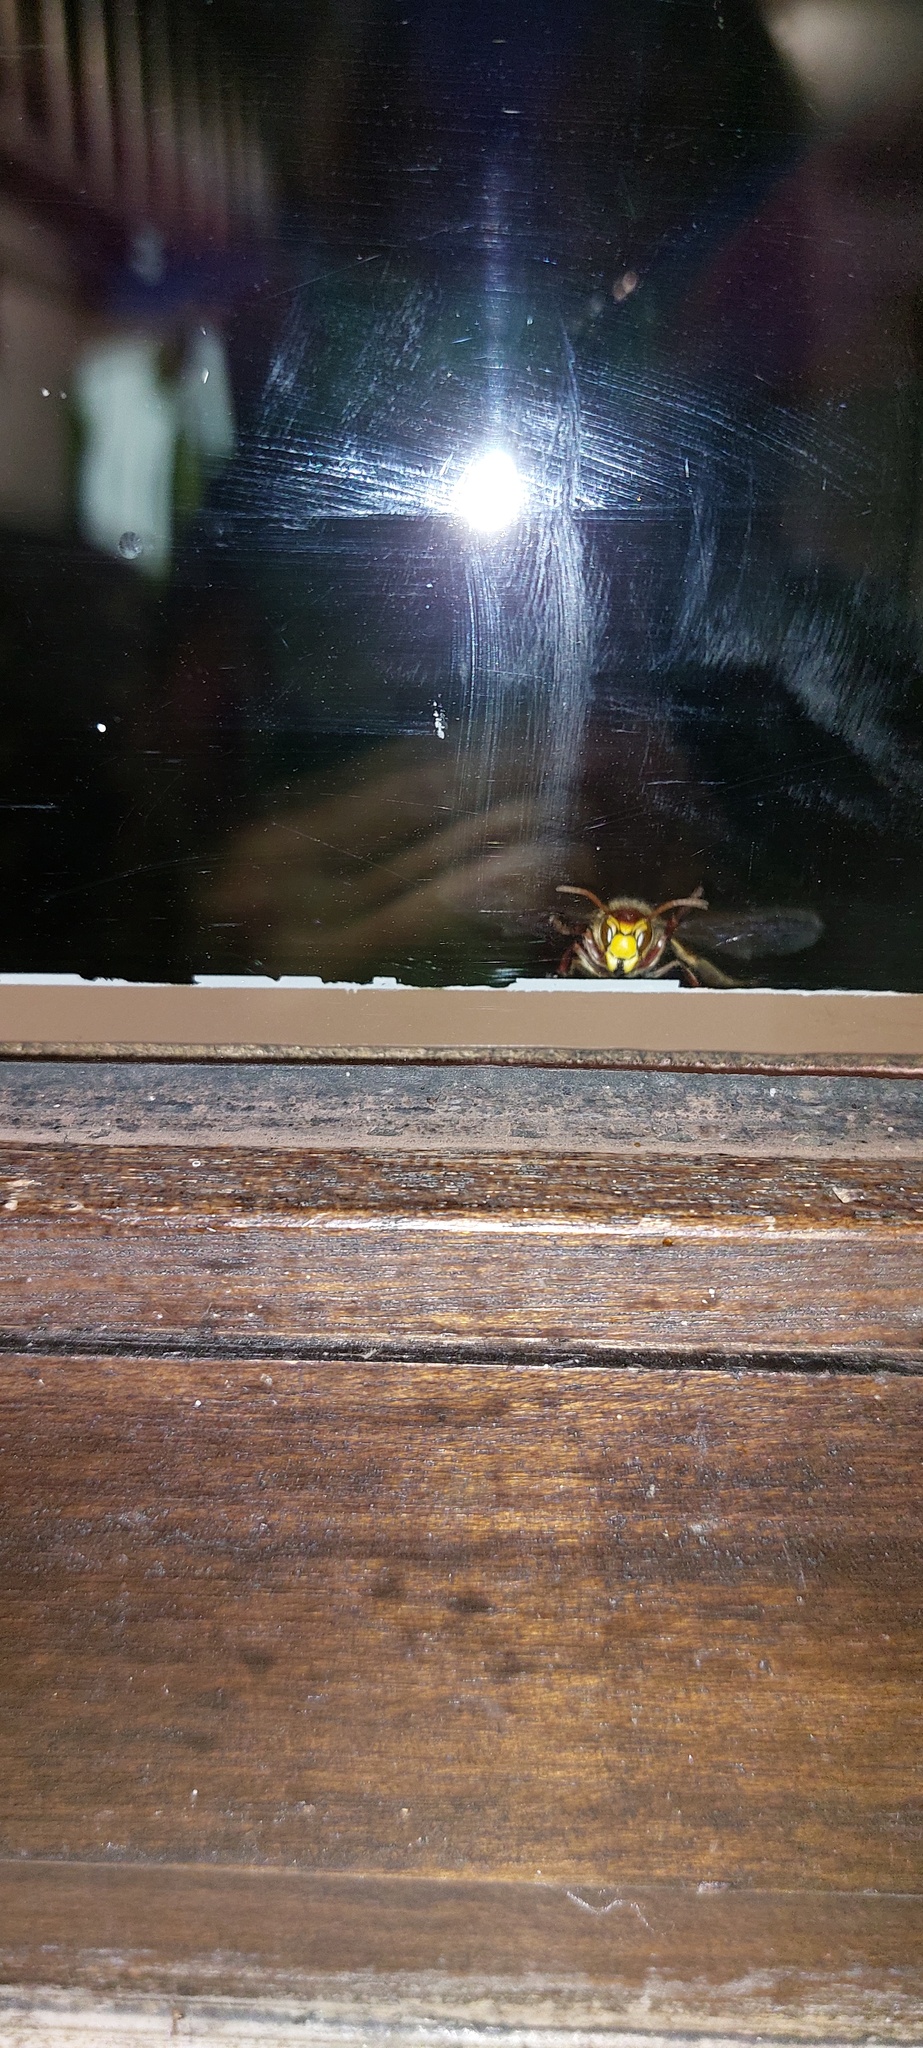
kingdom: Animalia
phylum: Arthropoda
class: Insecta
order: Hymenoptera
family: Vespidae
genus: Vespa
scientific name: Vespa crabro
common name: Hornet
